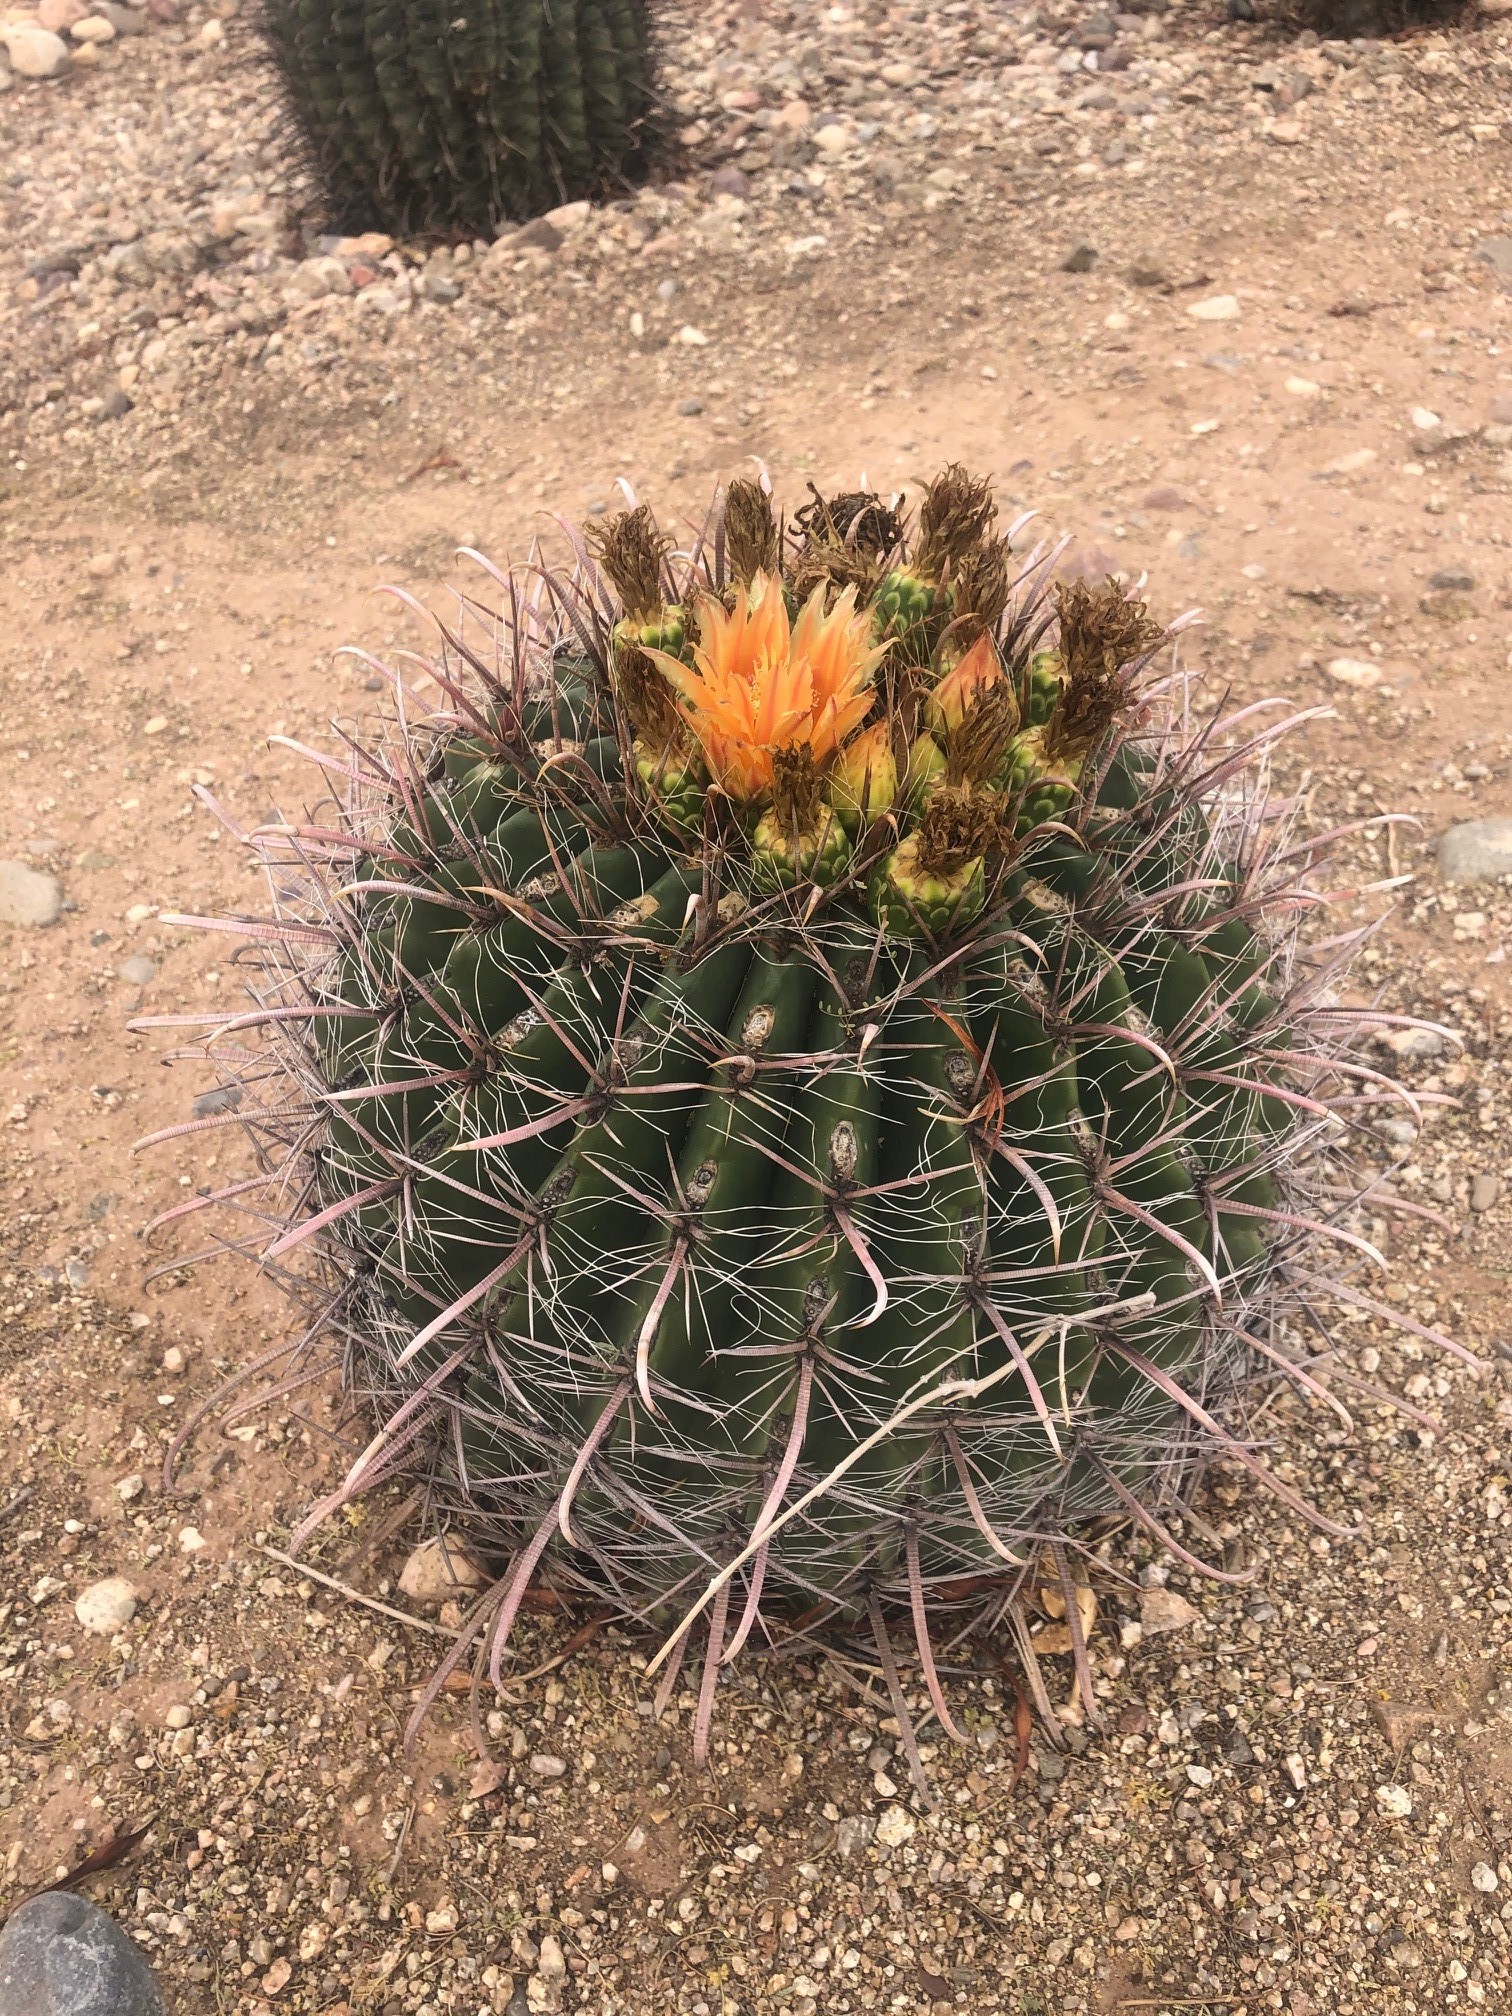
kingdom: Plantae
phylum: Tracheophyta
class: Magnoliopsida
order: Caryophyllales
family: Cactaceae
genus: Ferocactus
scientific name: Ferocactus wislizeni
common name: Candy barrel cactus
